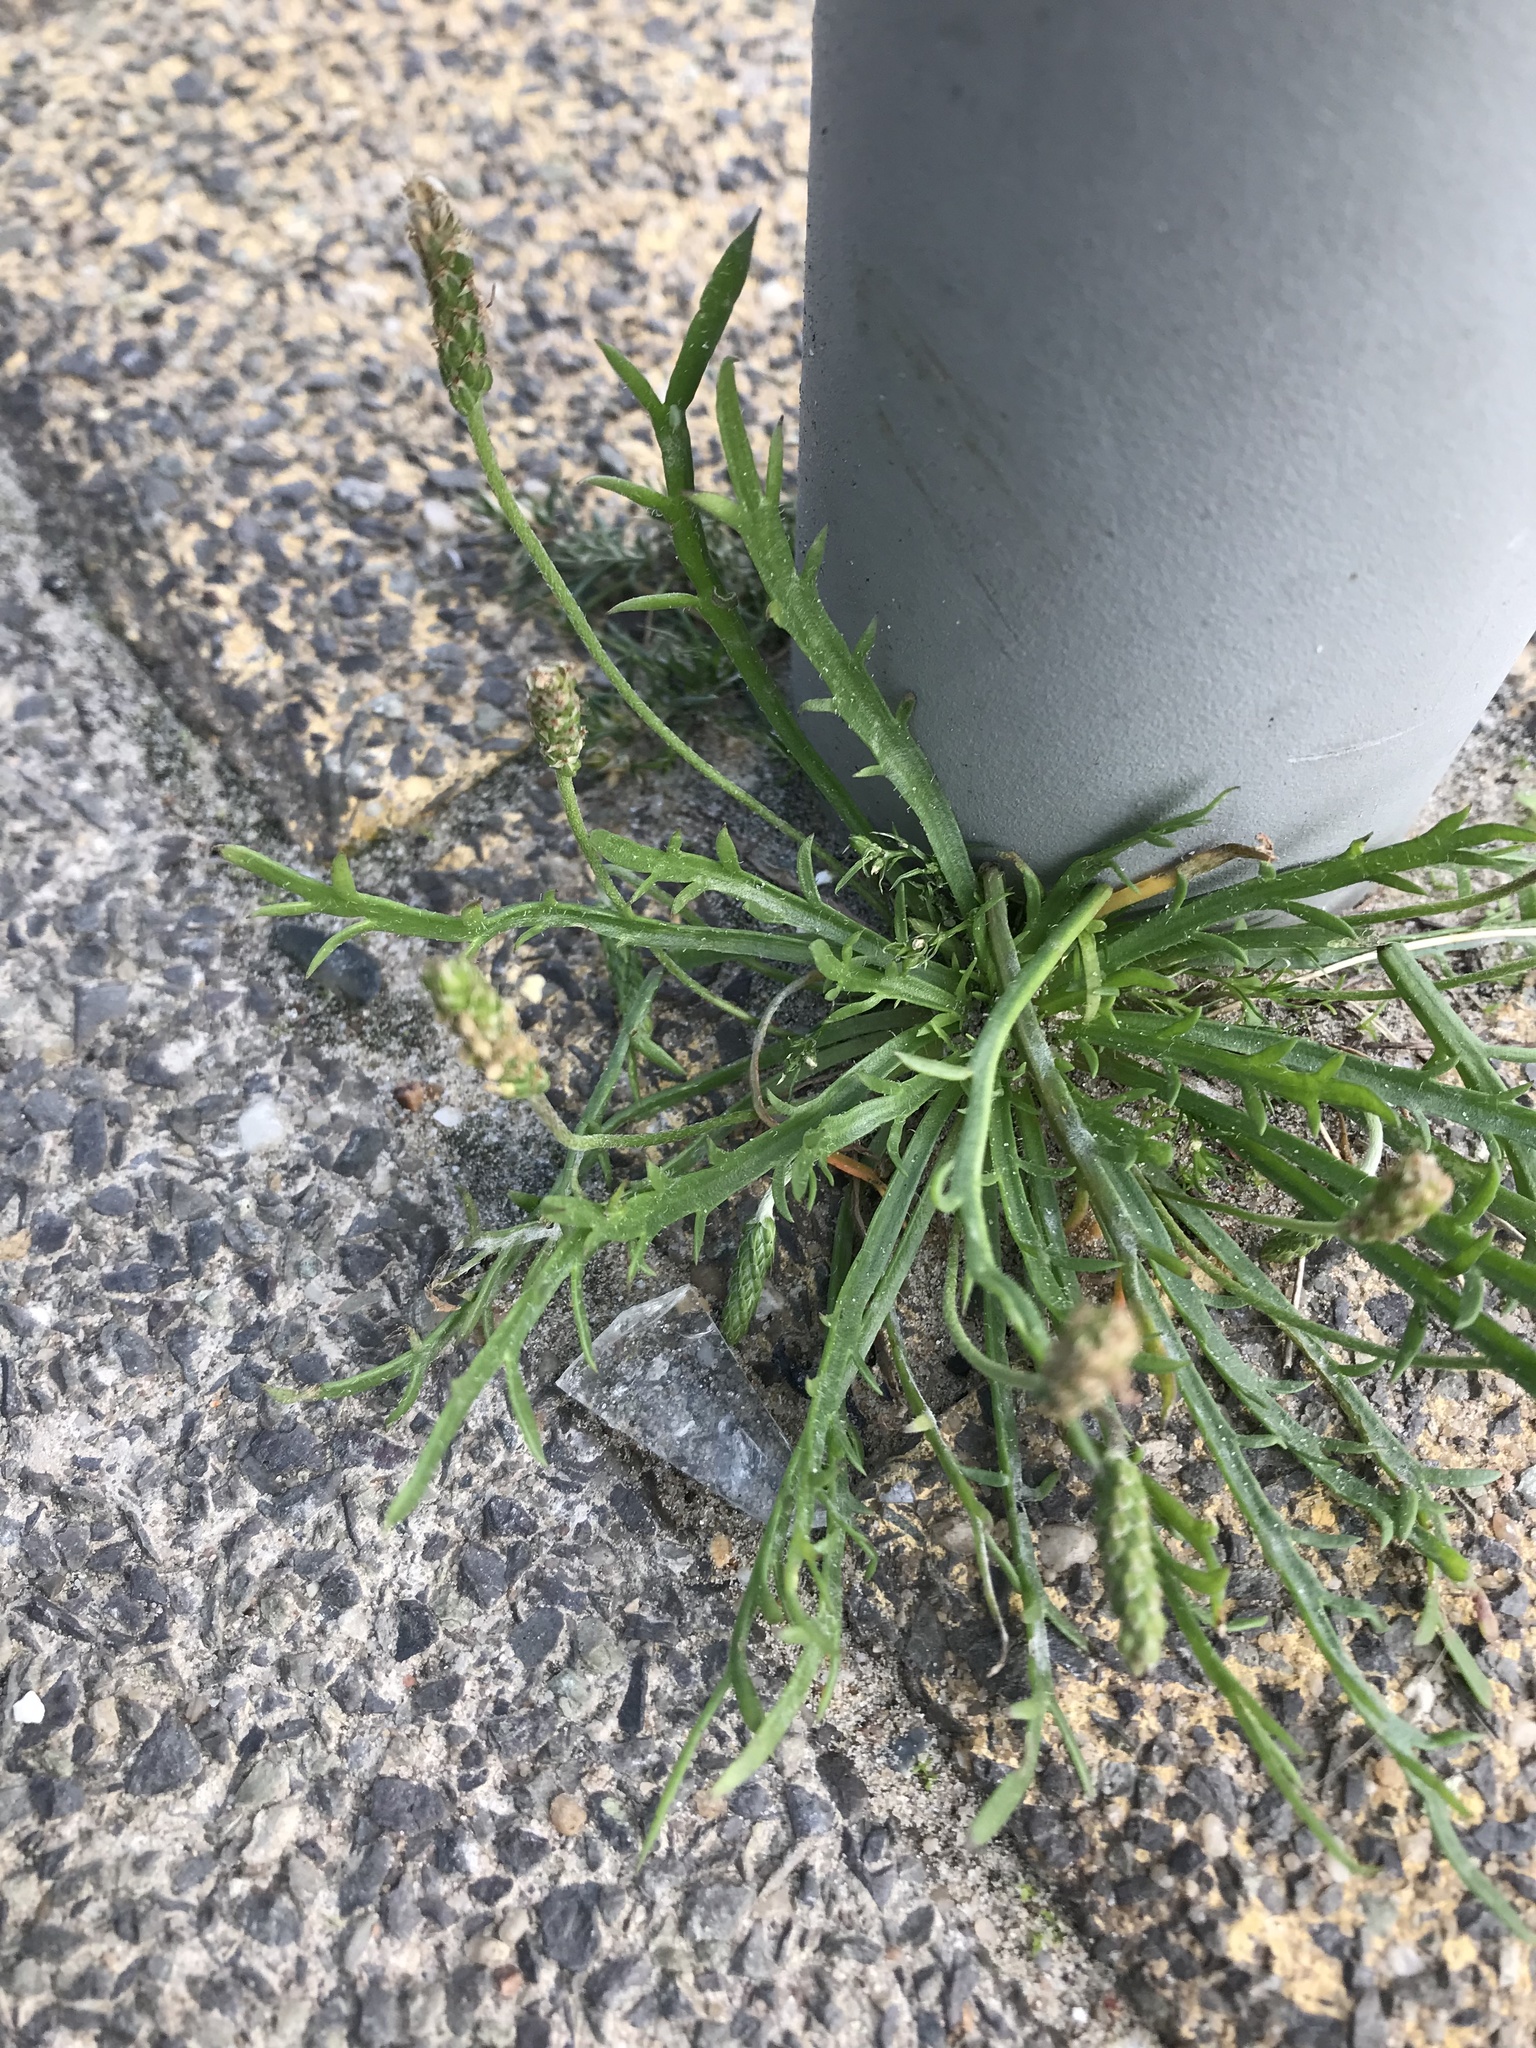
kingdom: Plantae
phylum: Tracheophyta
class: Magnoliopsida
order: Lamiales
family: Plantaginaceae
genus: Plantago
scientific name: Plantago coronopus
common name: Buck's-horn plantain
